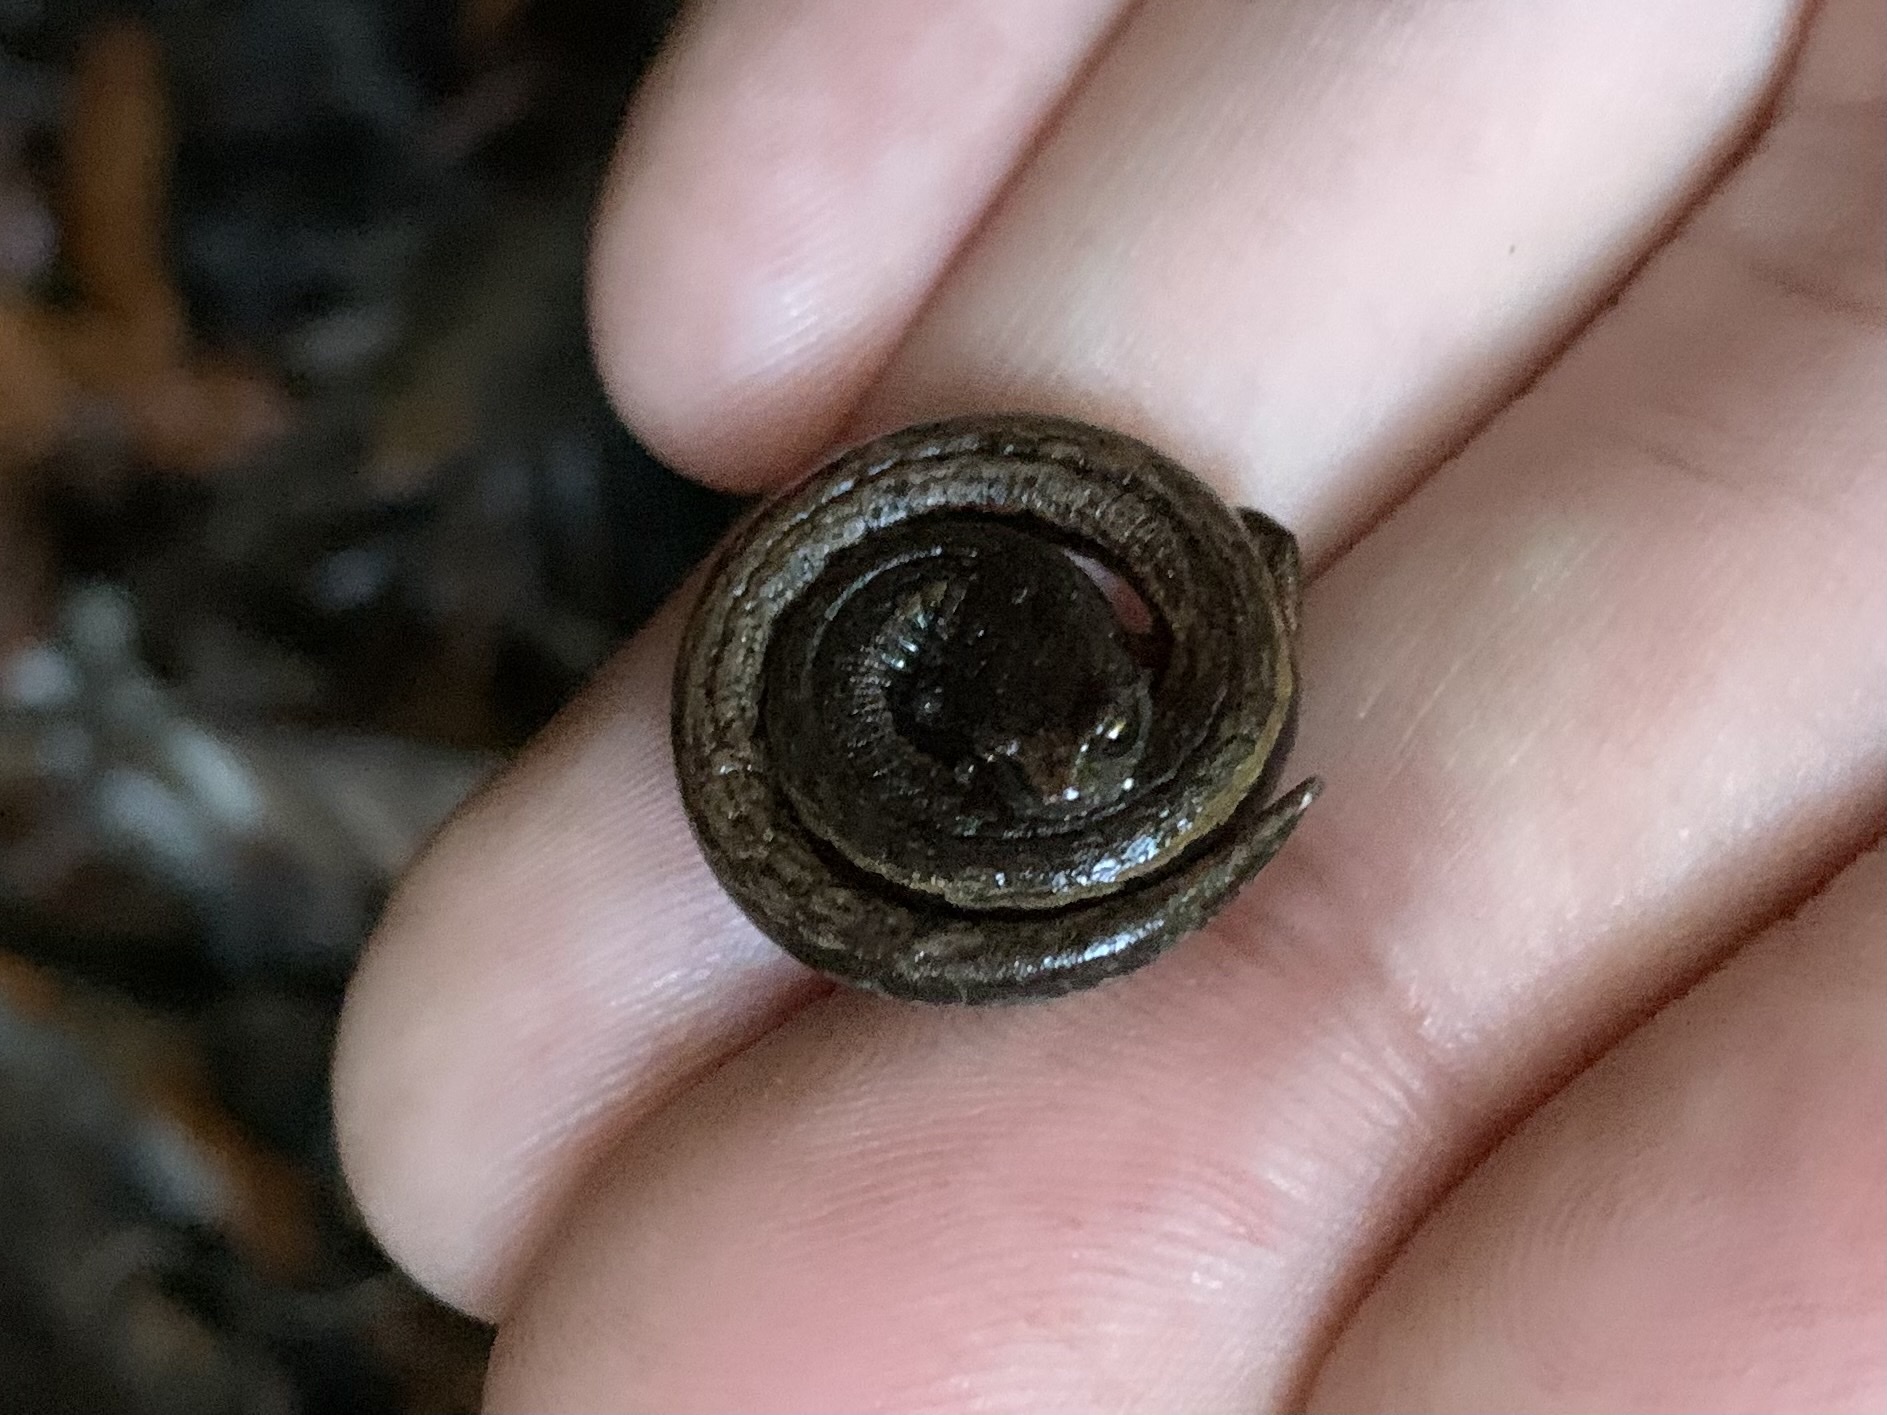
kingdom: Animalia
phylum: Chordata
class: Amphibia
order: Caudata
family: Plethodontidae
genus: Batrachoseps
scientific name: Batrachoseps attenuatus
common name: California slender salamander
